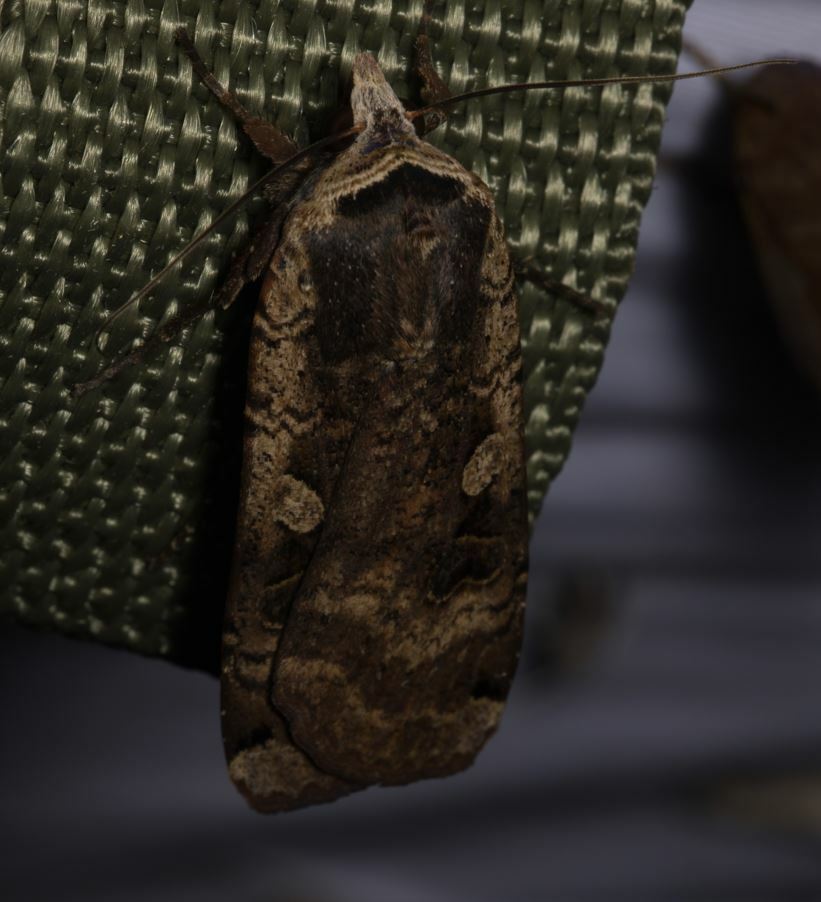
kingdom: Animalia
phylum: Arthropoda
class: Insecta
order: Lepidoptera
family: Noctuidae
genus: Noctua
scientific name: Noctua pronuba
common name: Large yellow underwing
